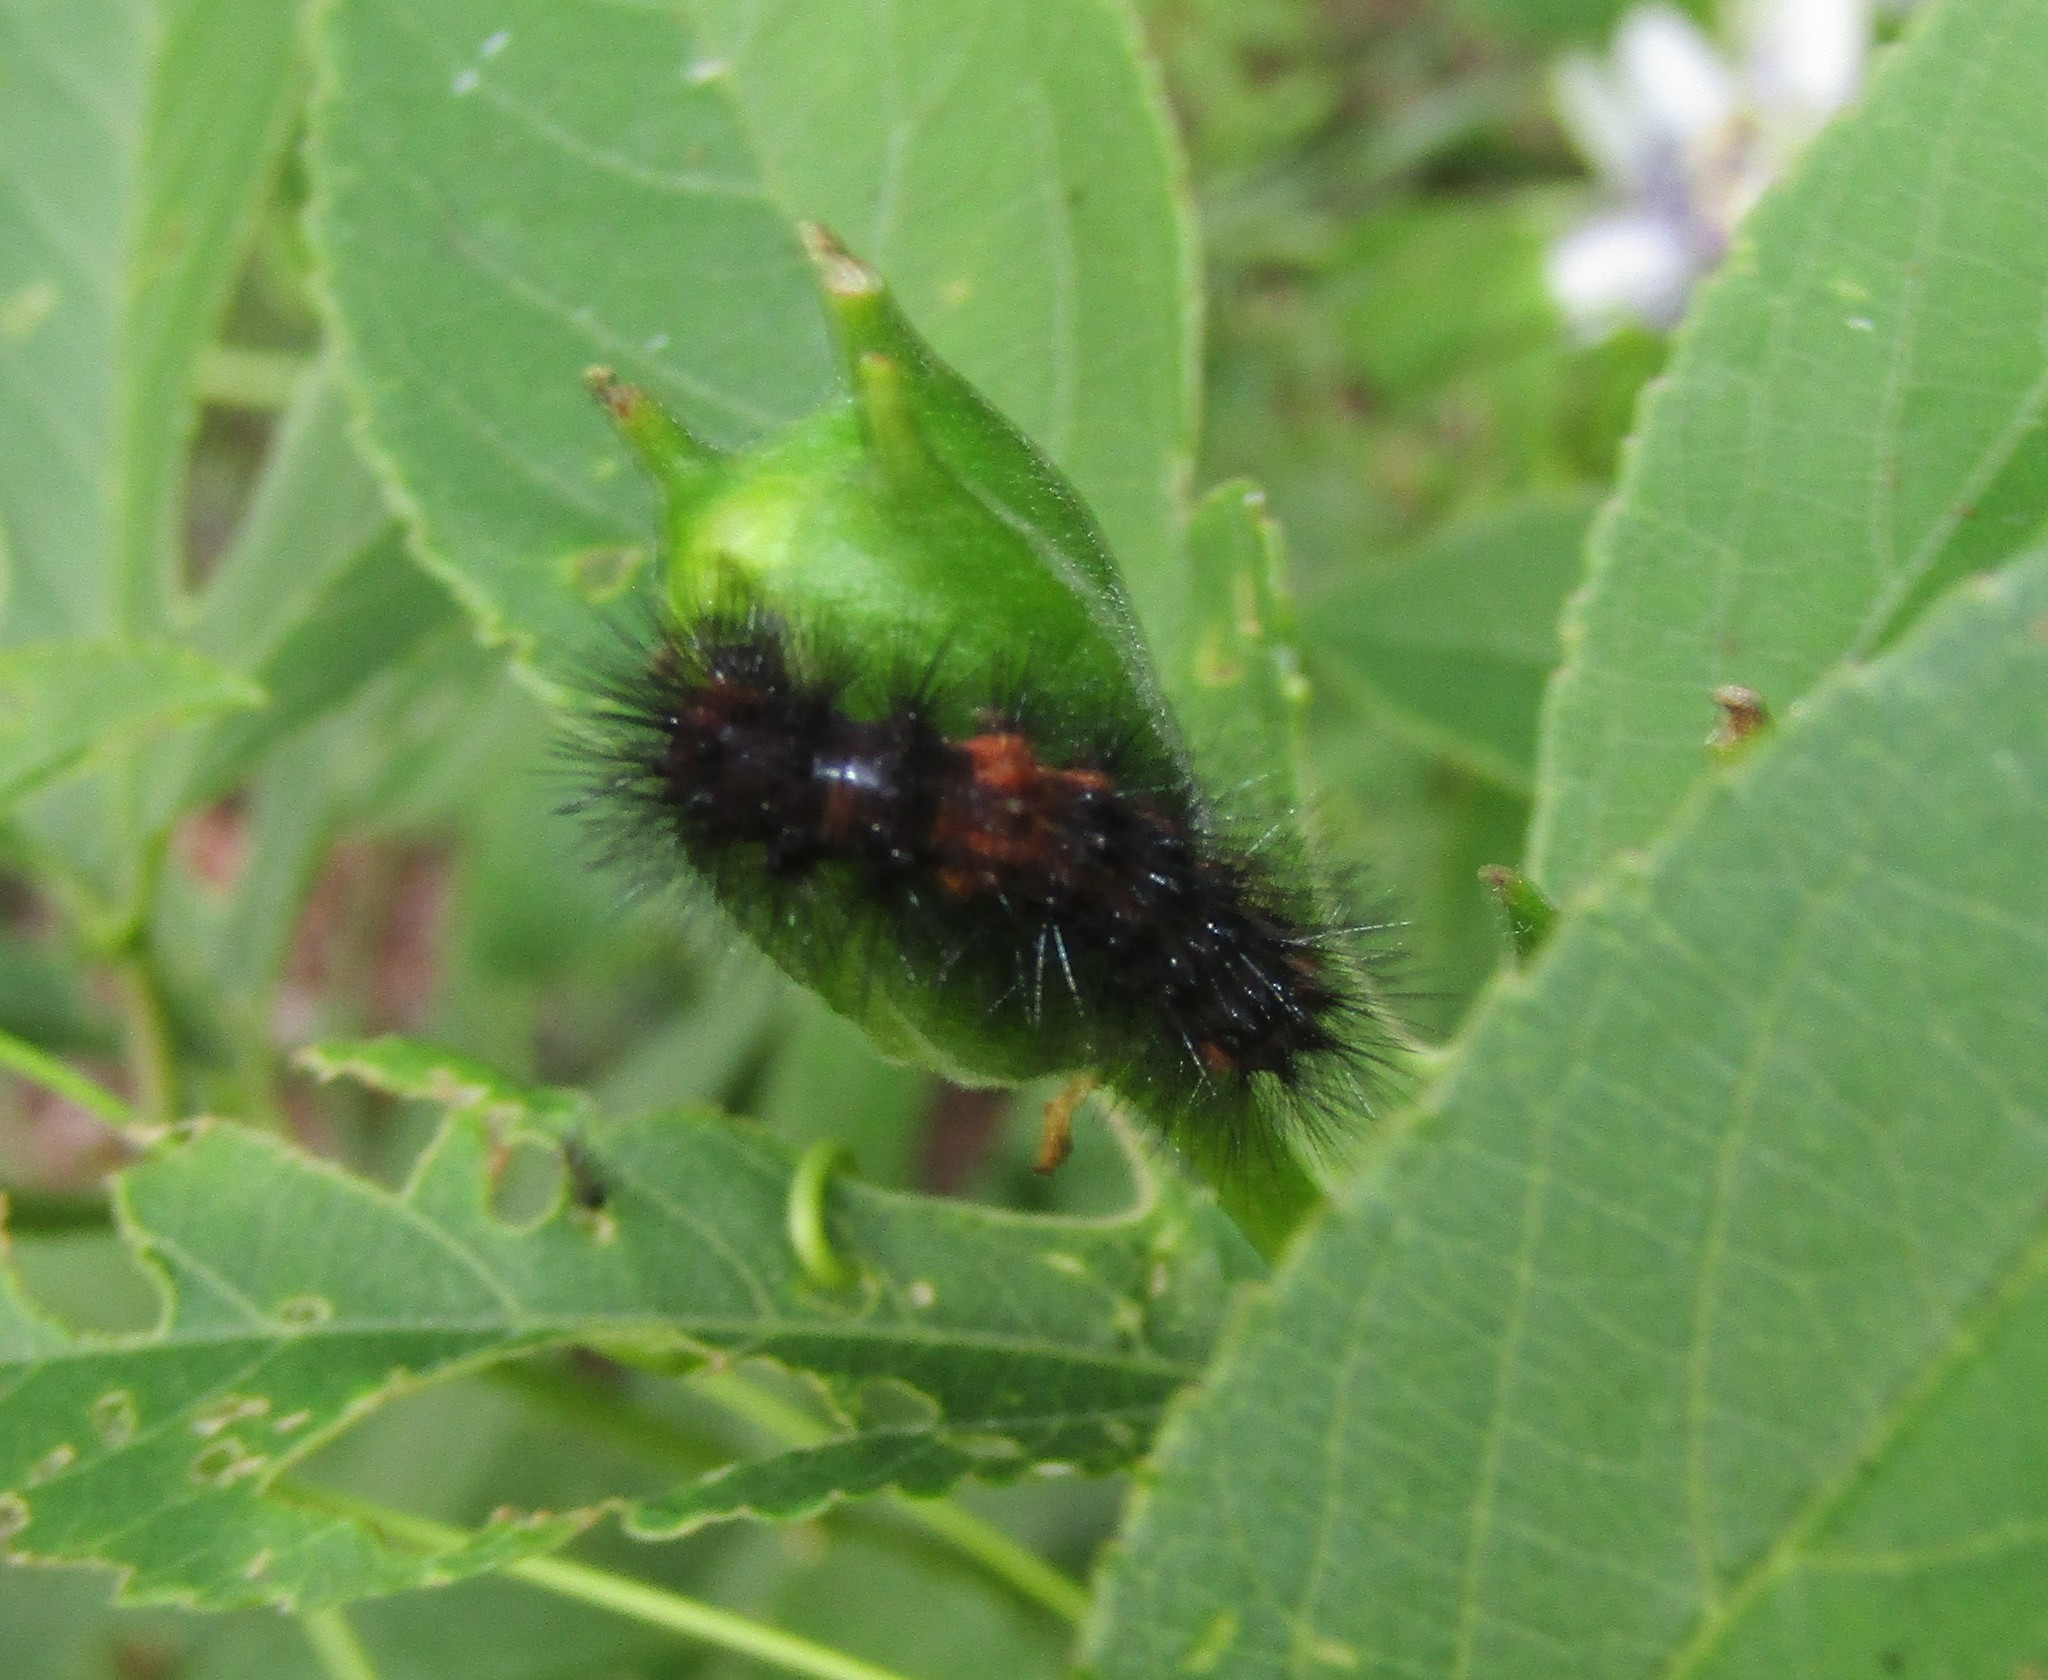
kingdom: Animalia
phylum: Arthropoda
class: Insecta
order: Lepidoptera
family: Erebidae
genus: Hypercompe
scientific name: Hypercompe scribonia
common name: Giant leopard moth
